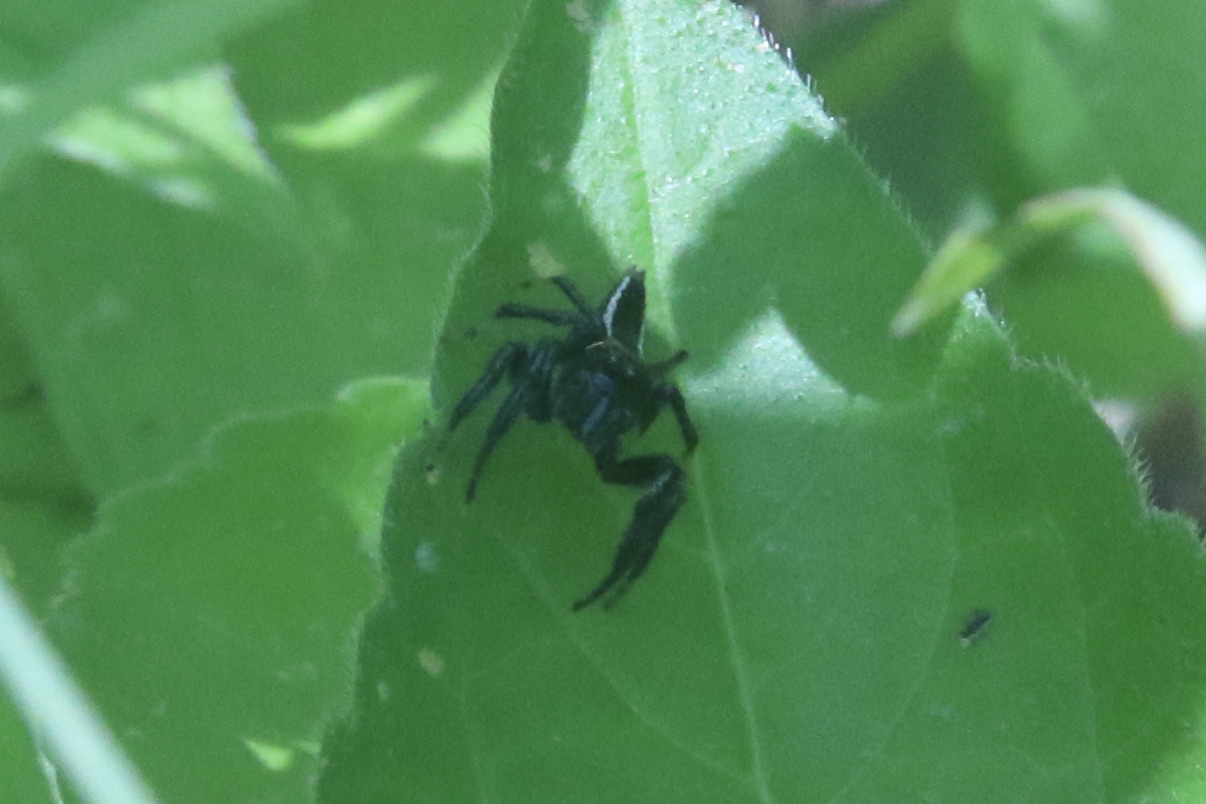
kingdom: Animalia
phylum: Arthropoda
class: Arachnida
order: Araneae
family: Salticidae
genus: Colonus
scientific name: Colonus sylvanus
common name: Jumping spiders
